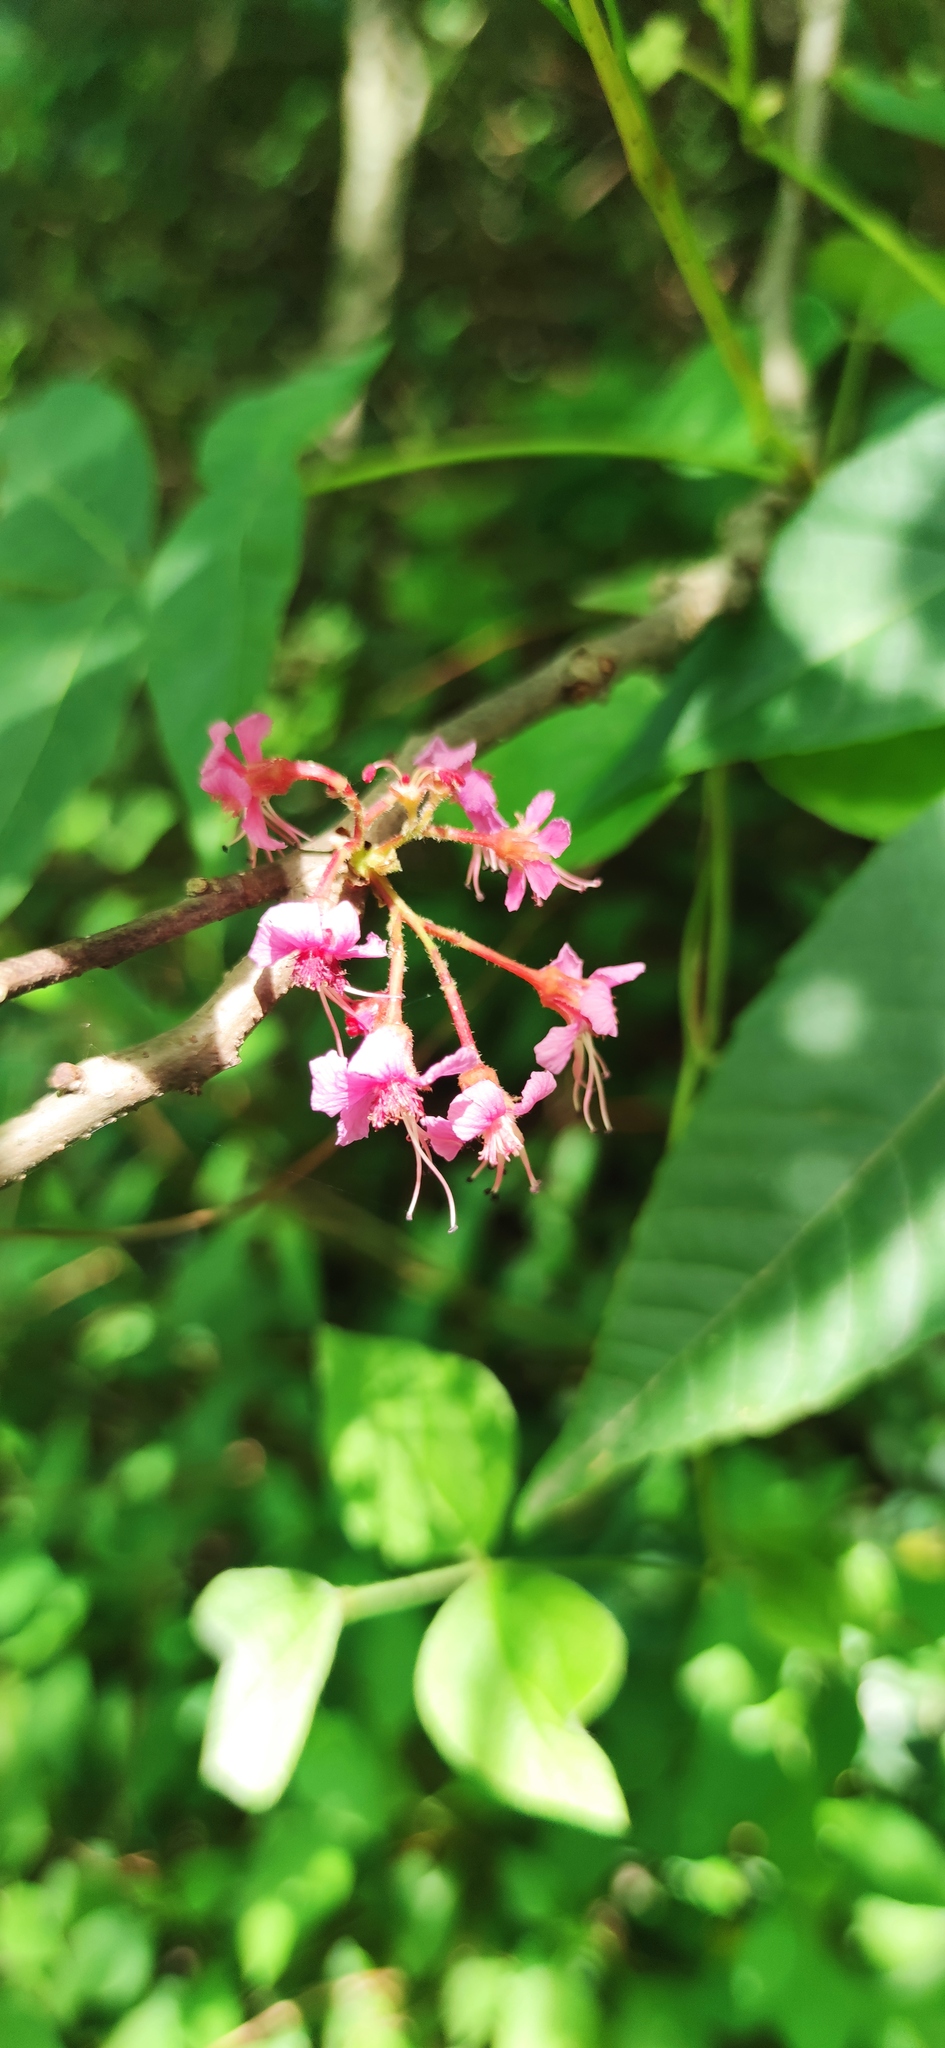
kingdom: Plantae
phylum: Tracheophyta
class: Magnoliopsida
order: Sapindales
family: Sapindaceae
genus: Ungnadia
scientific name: Ungnadia speciosa
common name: Texas-buckeye
